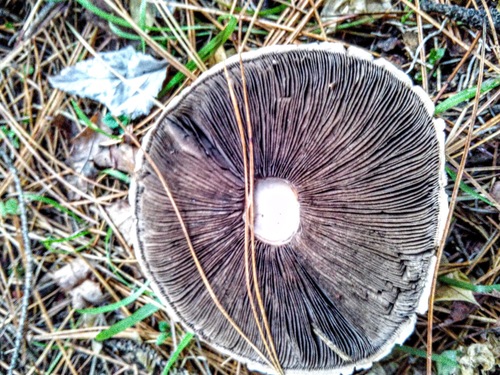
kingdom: Fungi
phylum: Basidiomycota
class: Agaricomycetes
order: Agaricales
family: Agaricaceae
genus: Agaricus
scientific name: Agaricus
